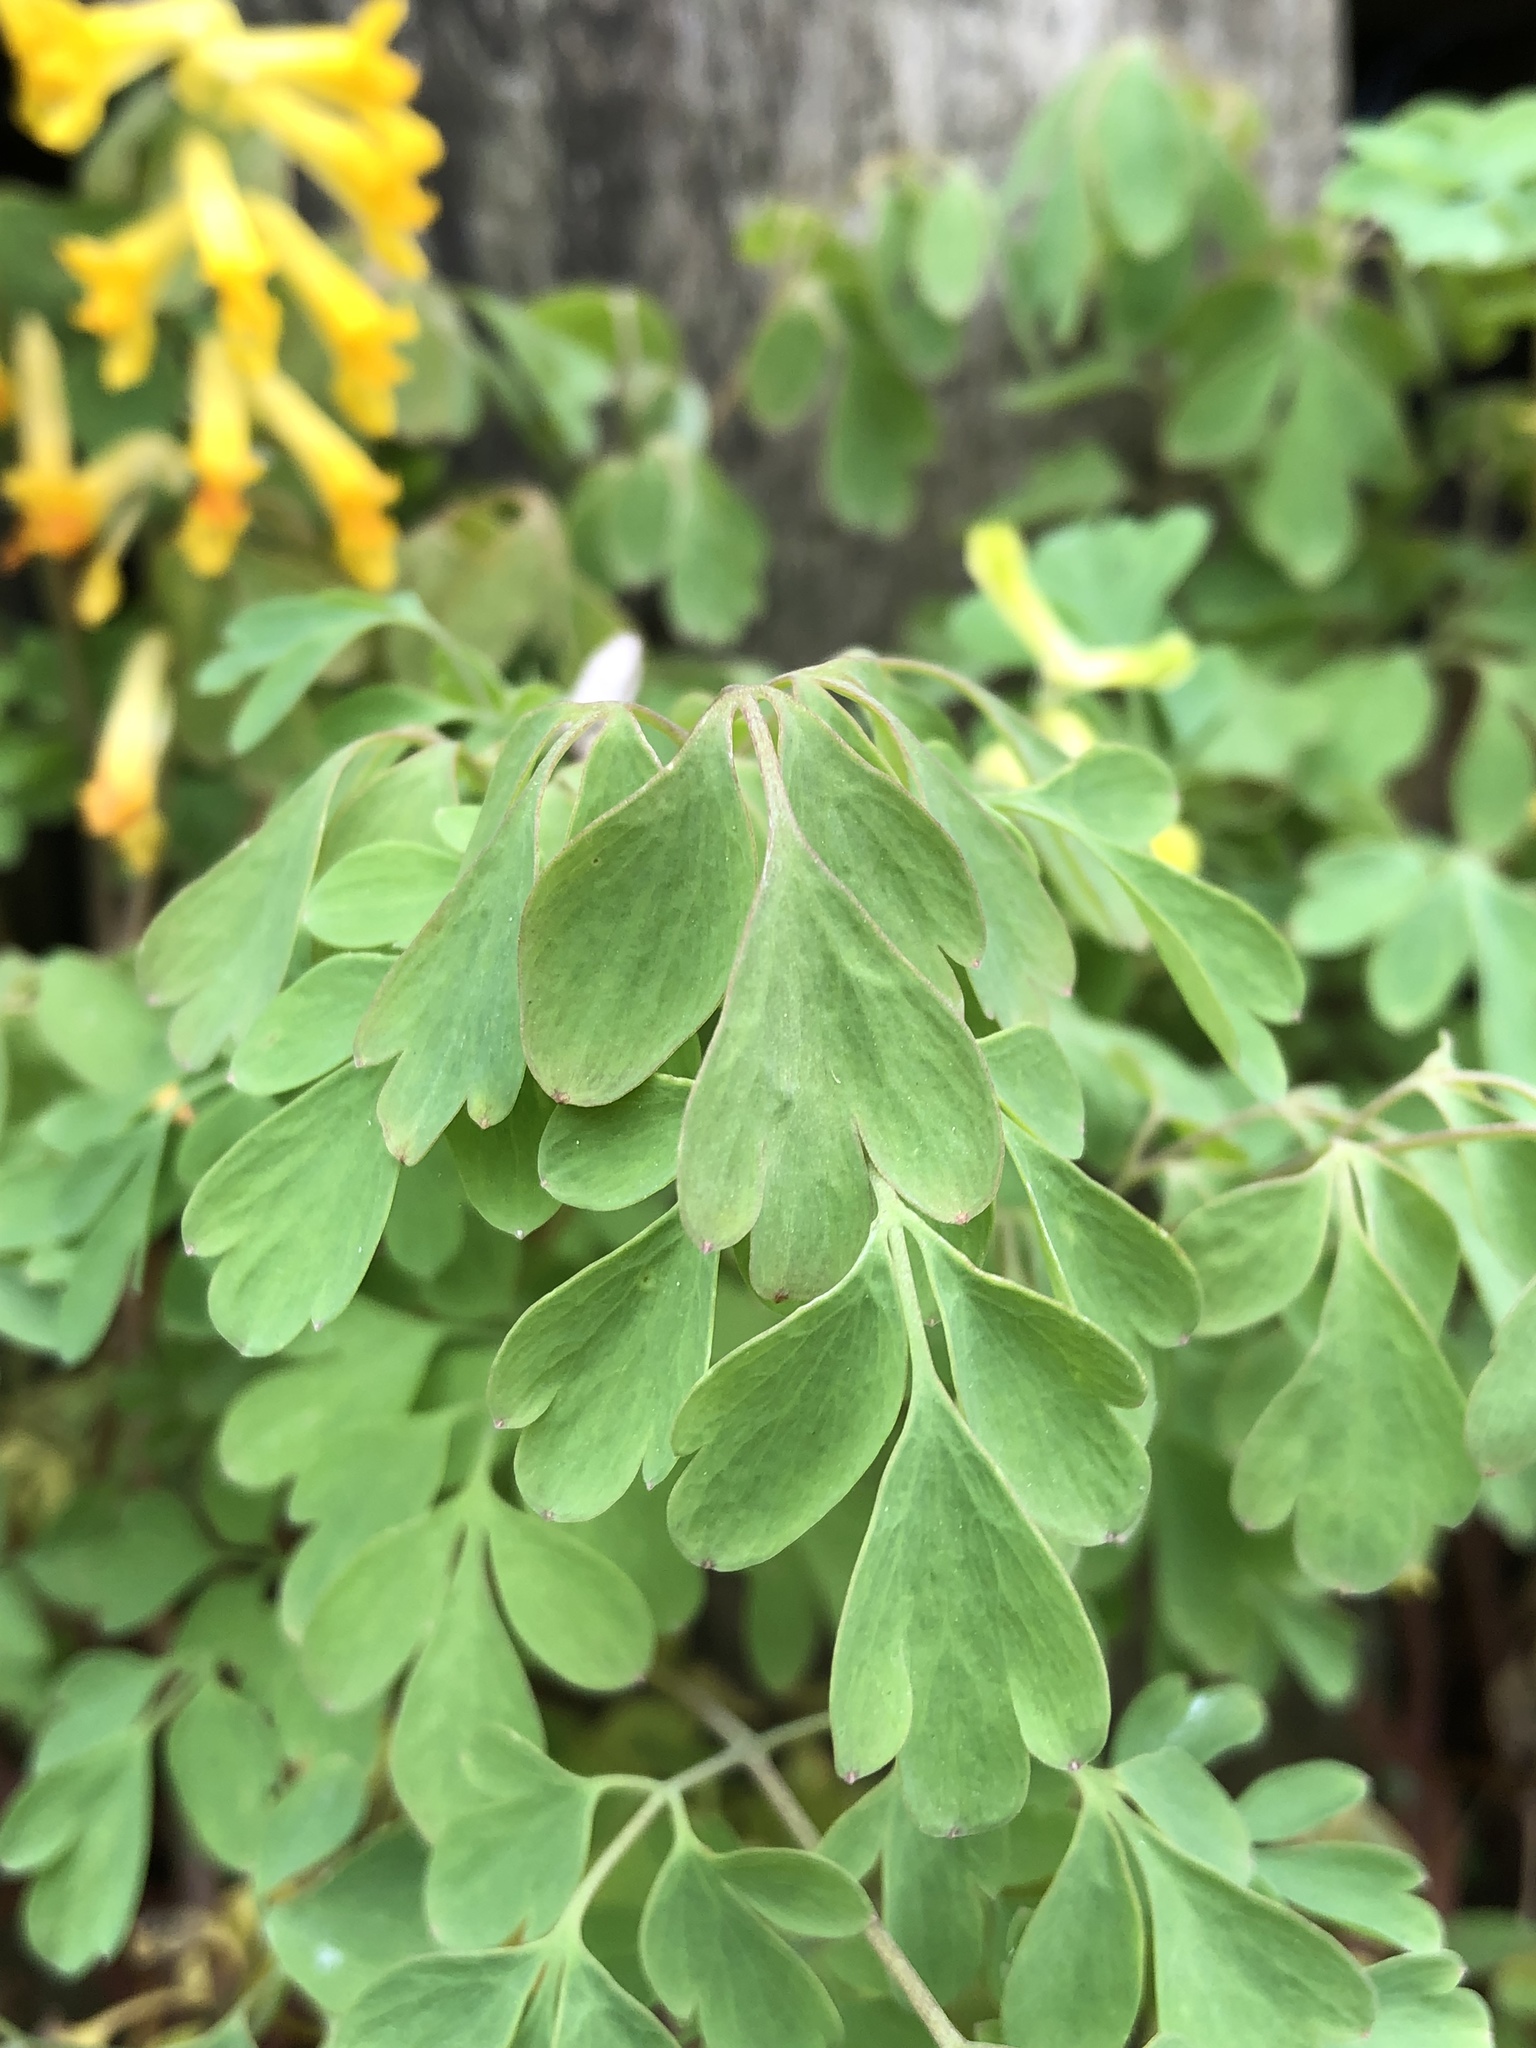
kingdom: Plantae
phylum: Tracheophyta
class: Magnoliopsida
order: Ranunculales
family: Papaveraceae
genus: Pseudofumaria
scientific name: Pseudofumaria lutea
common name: Yellow corydalis
